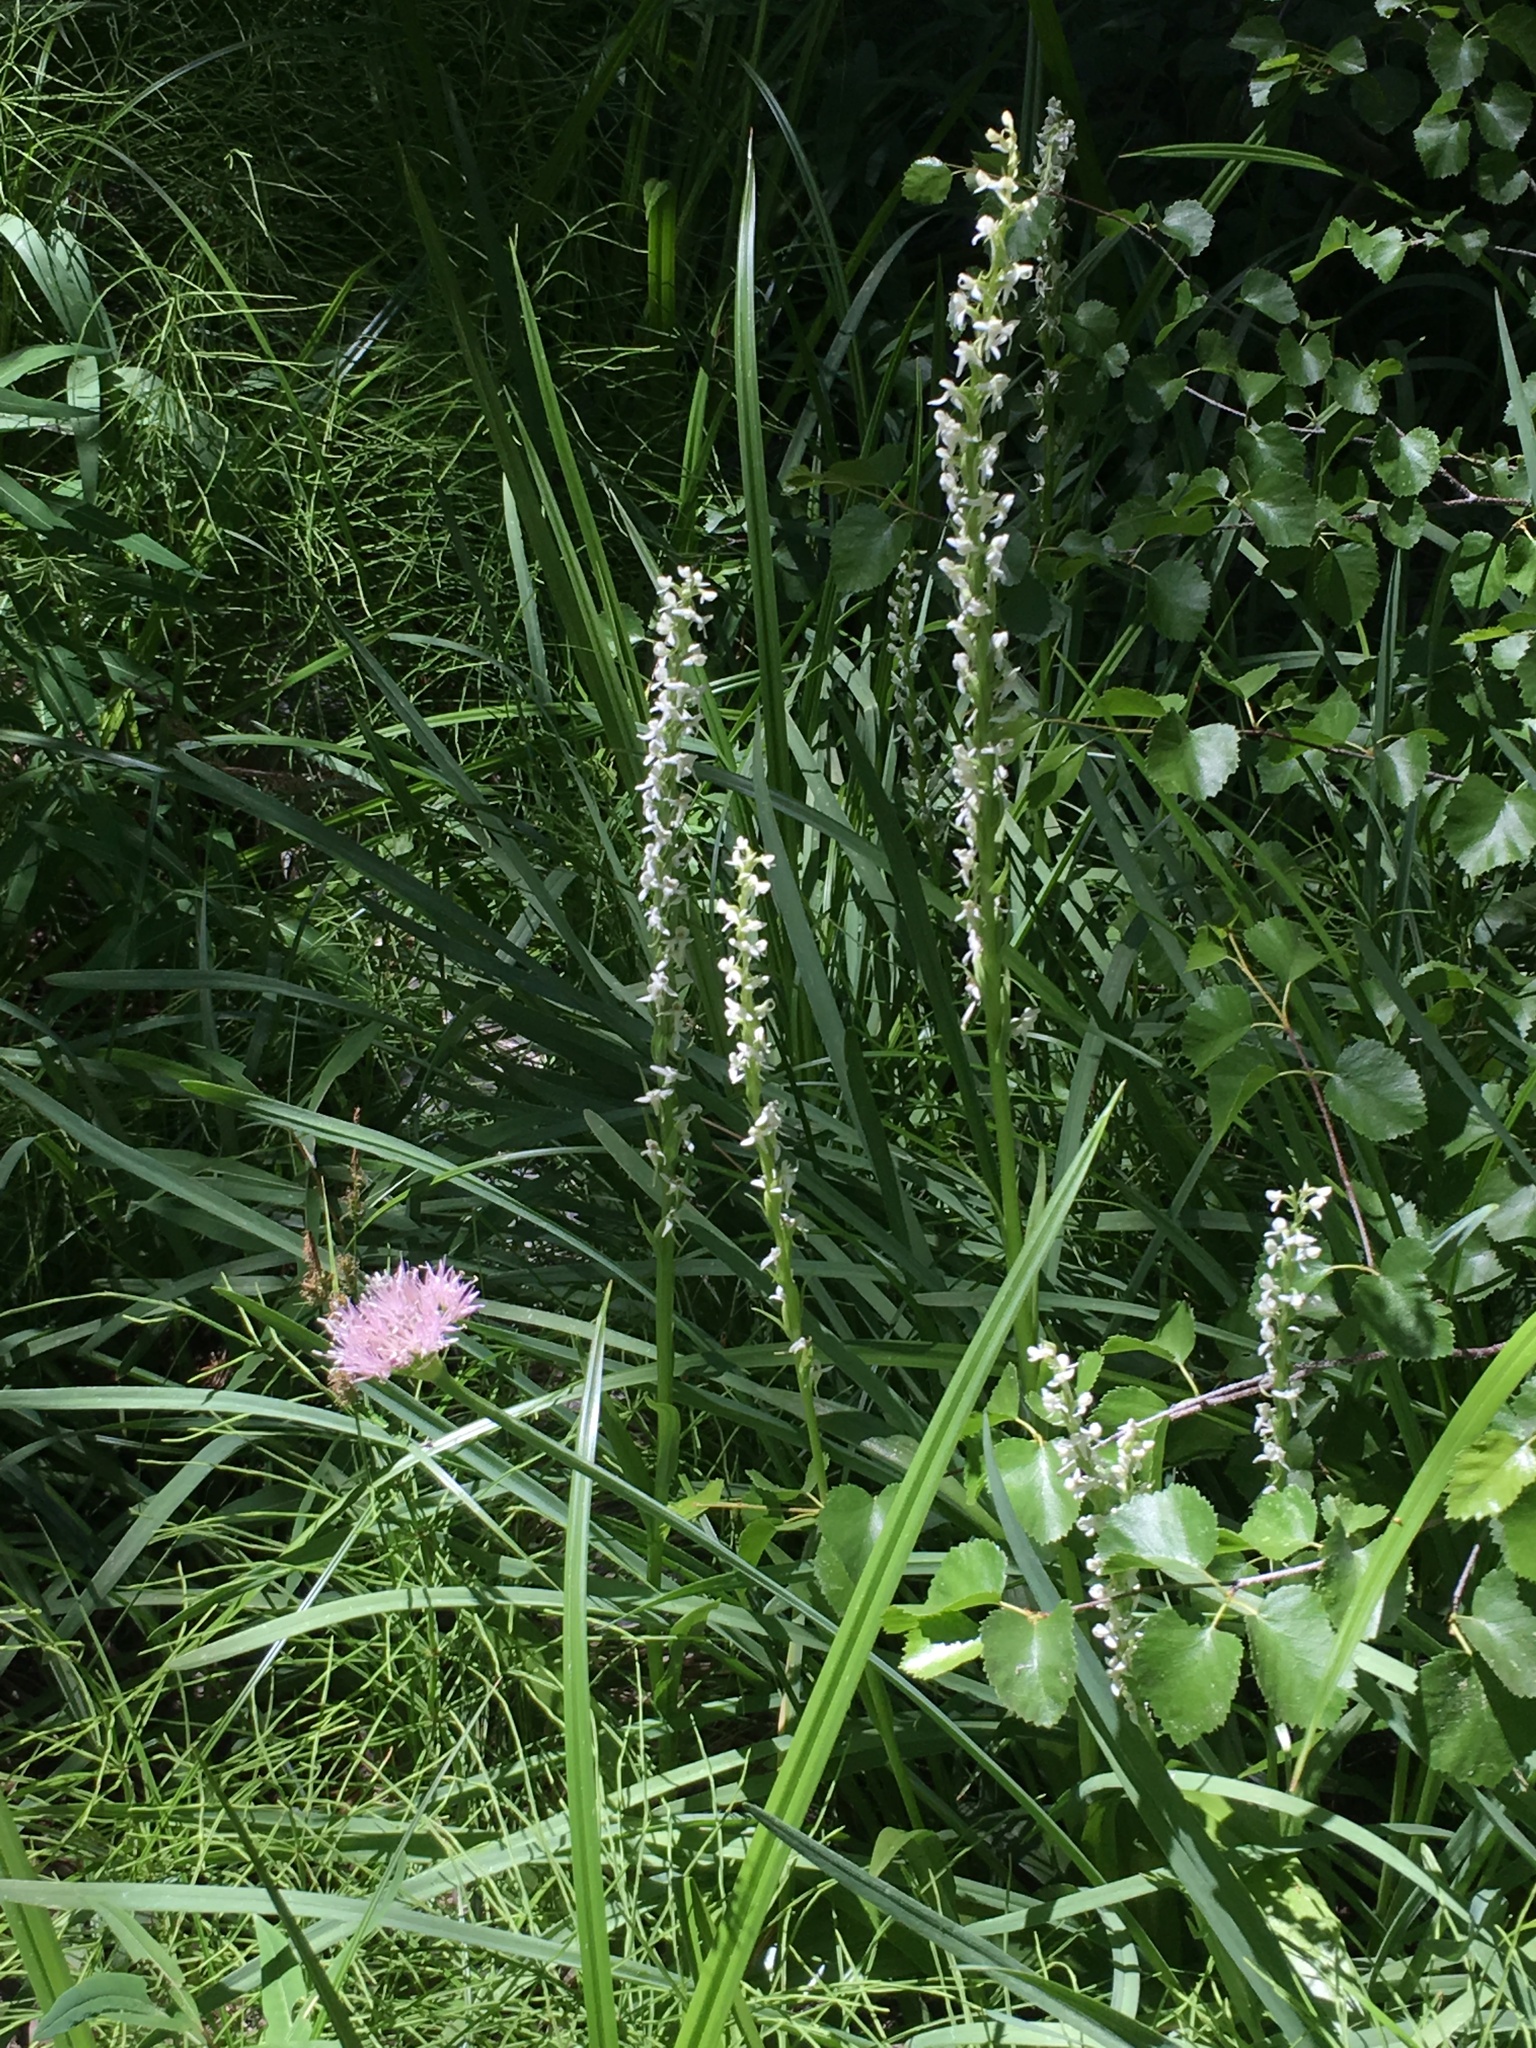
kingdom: Plantae
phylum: Tracheophyta
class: Liliopsida
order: Asparagales
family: Orchidaceae
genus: Platanthera
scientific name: Platanthera dilatata
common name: Bog candles
